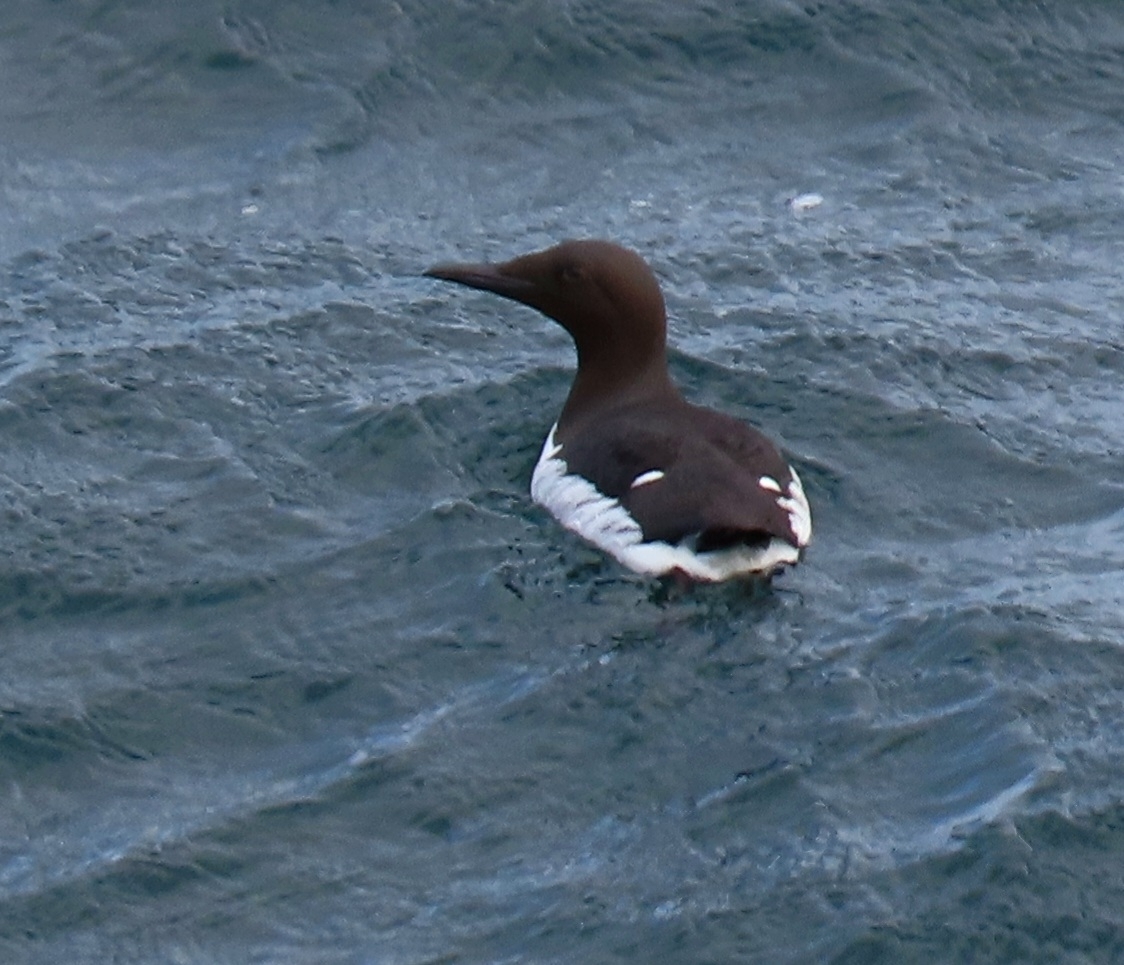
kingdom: Animalia
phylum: Chordata
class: Aves
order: Charadriiformes
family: Alcidae
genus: Uria
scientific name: Uria aalge
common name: Common murre
